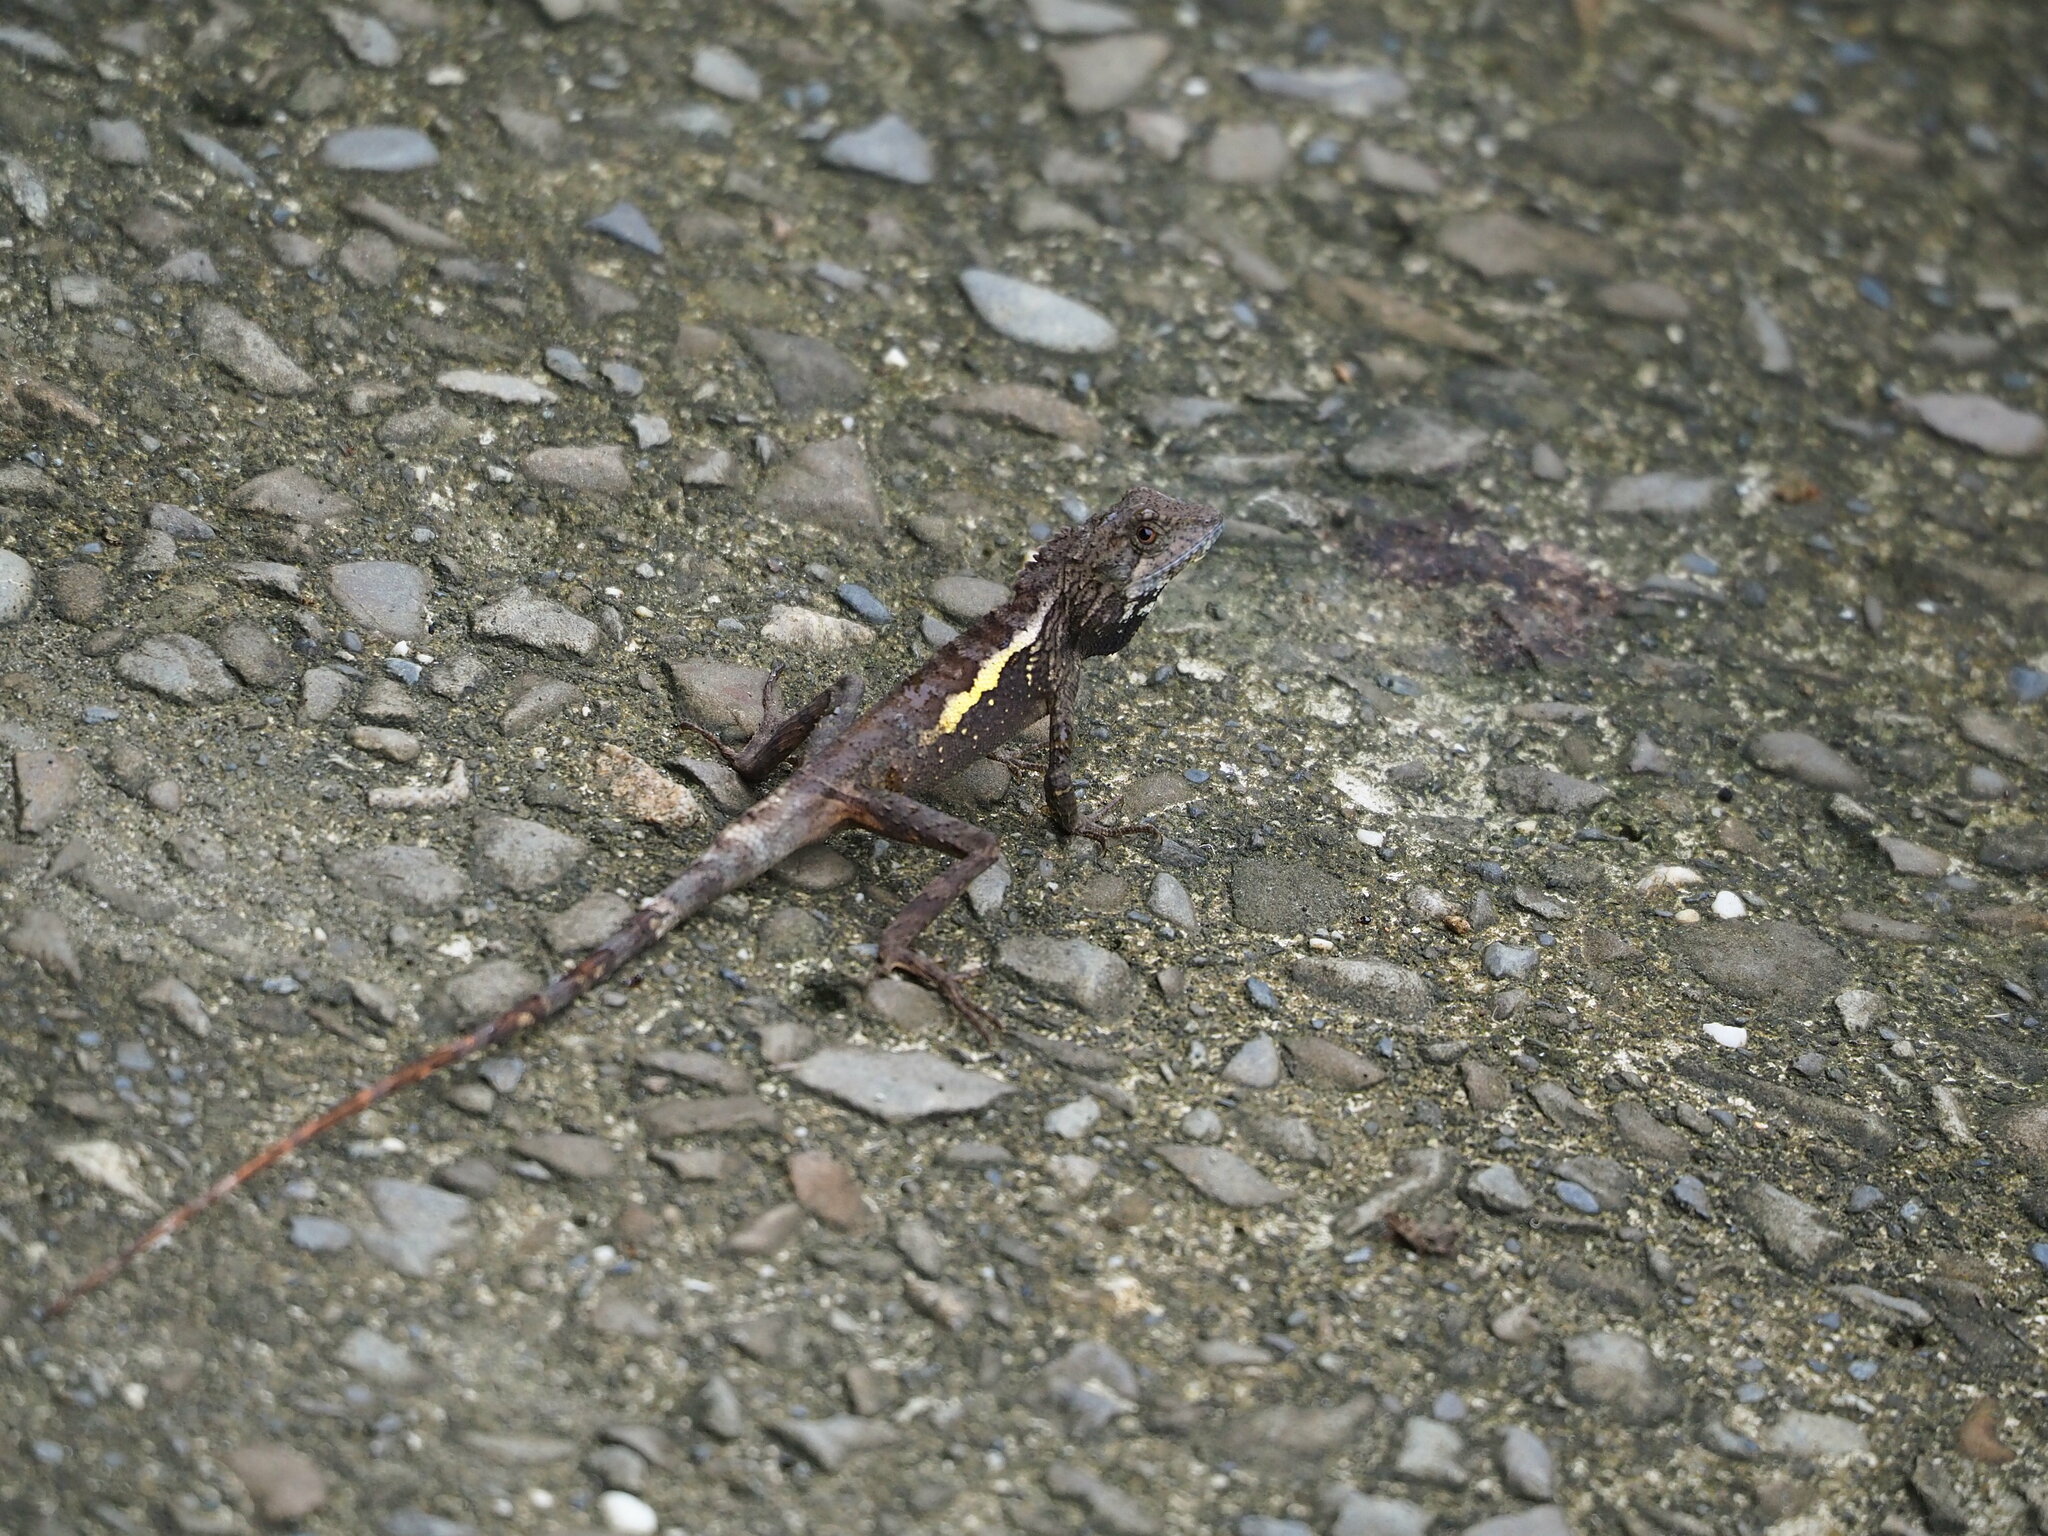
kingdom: Animalia
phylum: Chordata
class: Squamata
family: Agamidae
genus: Diploderma
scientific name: Diploderma swinhonis
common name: Taiwan japalure
